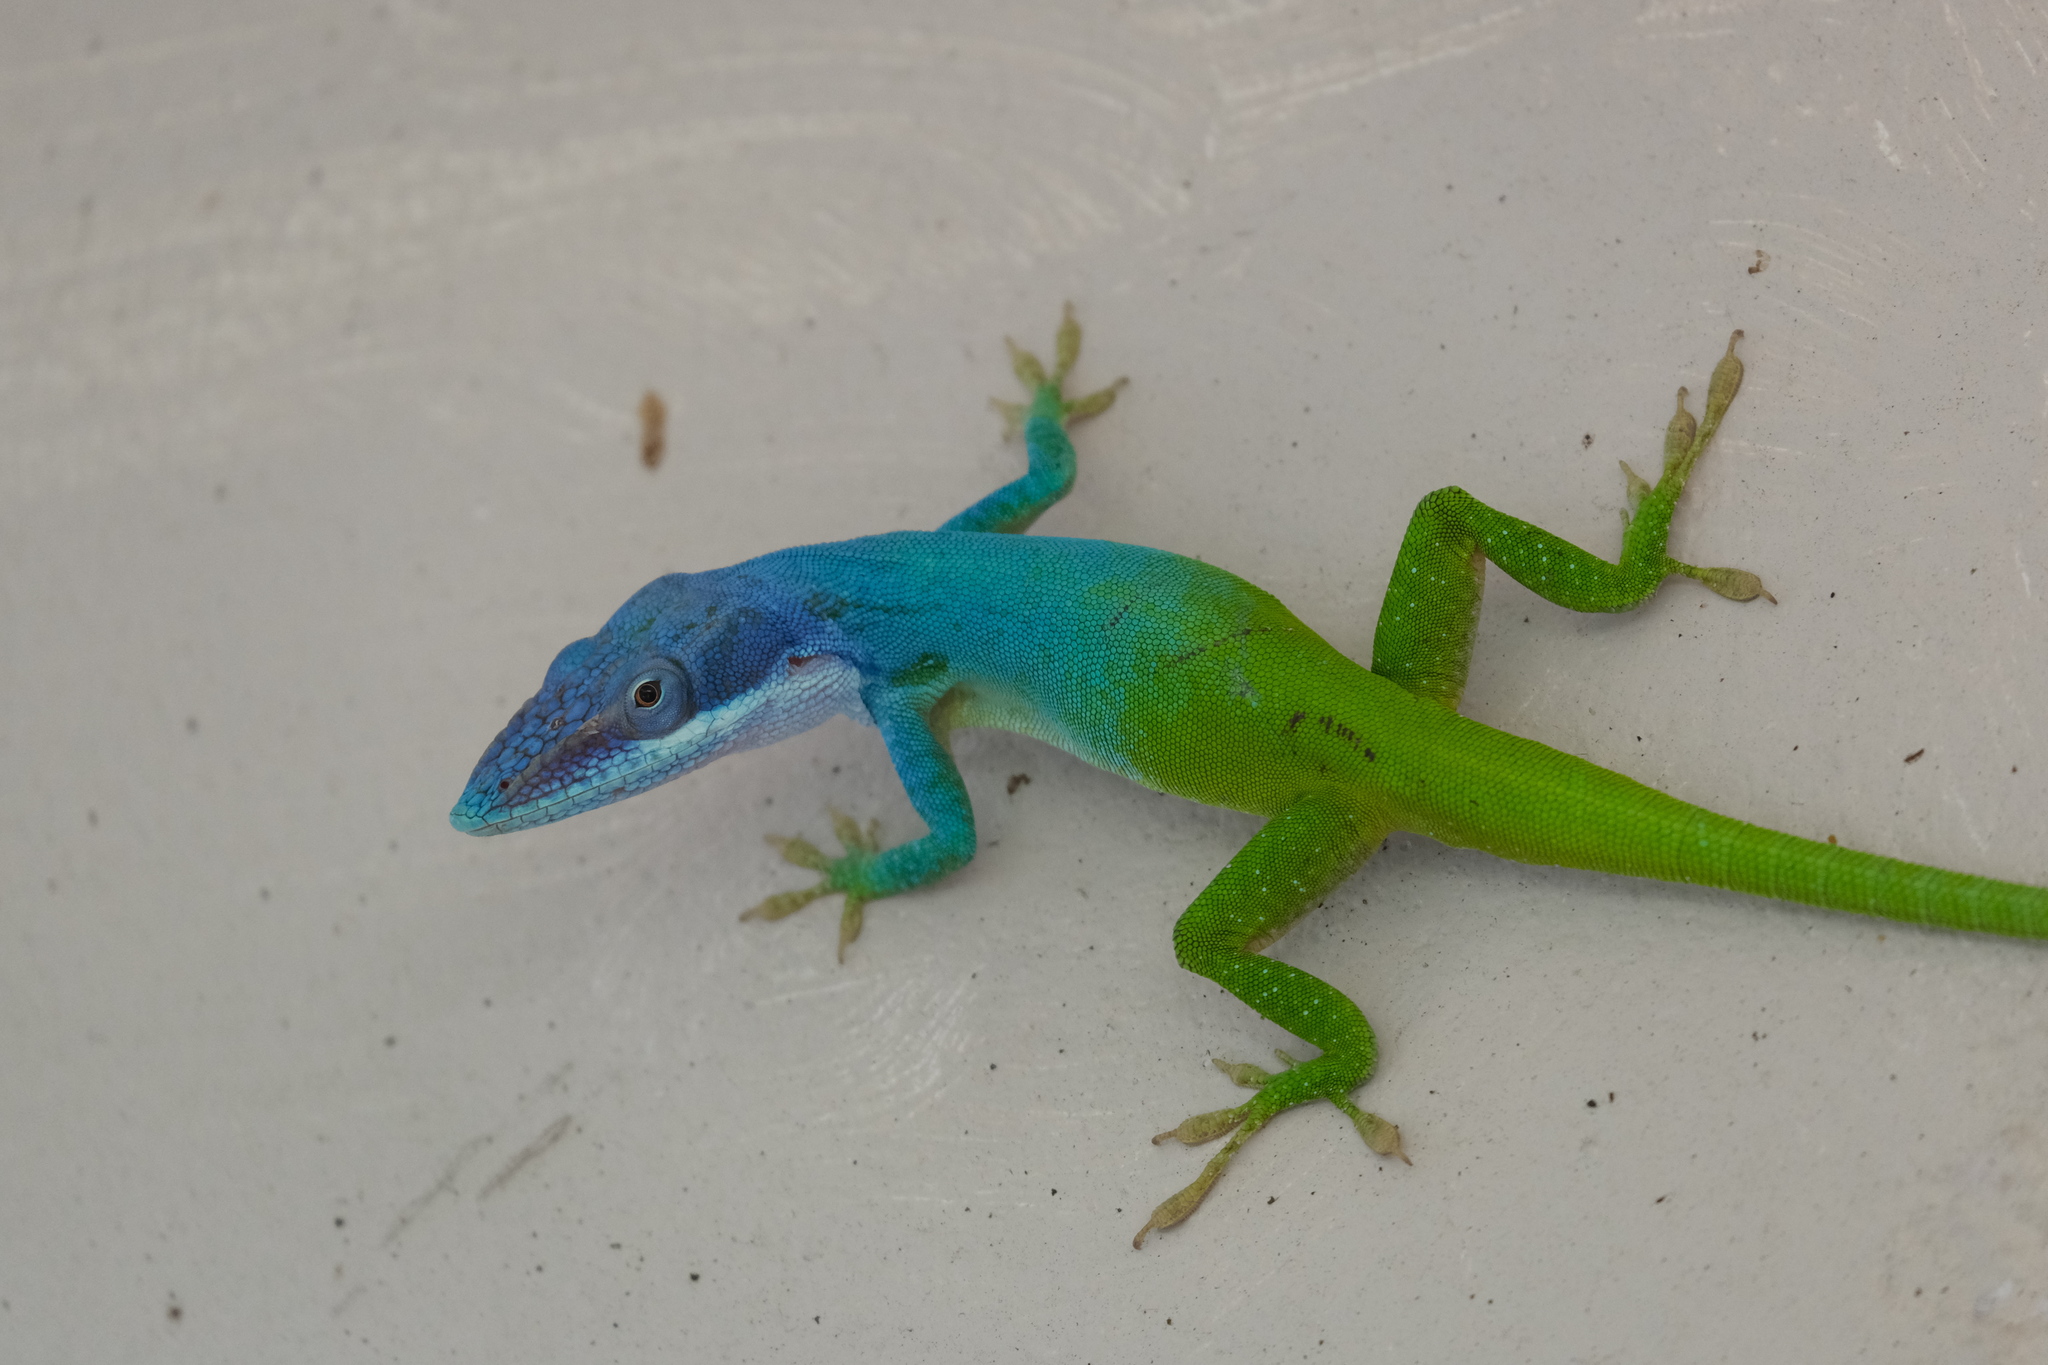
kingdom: Animalia
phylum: Chordata
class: Squamata
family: Dactyloidae
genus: Anolis
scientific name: Anolis allisoni
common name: Allison's anole
